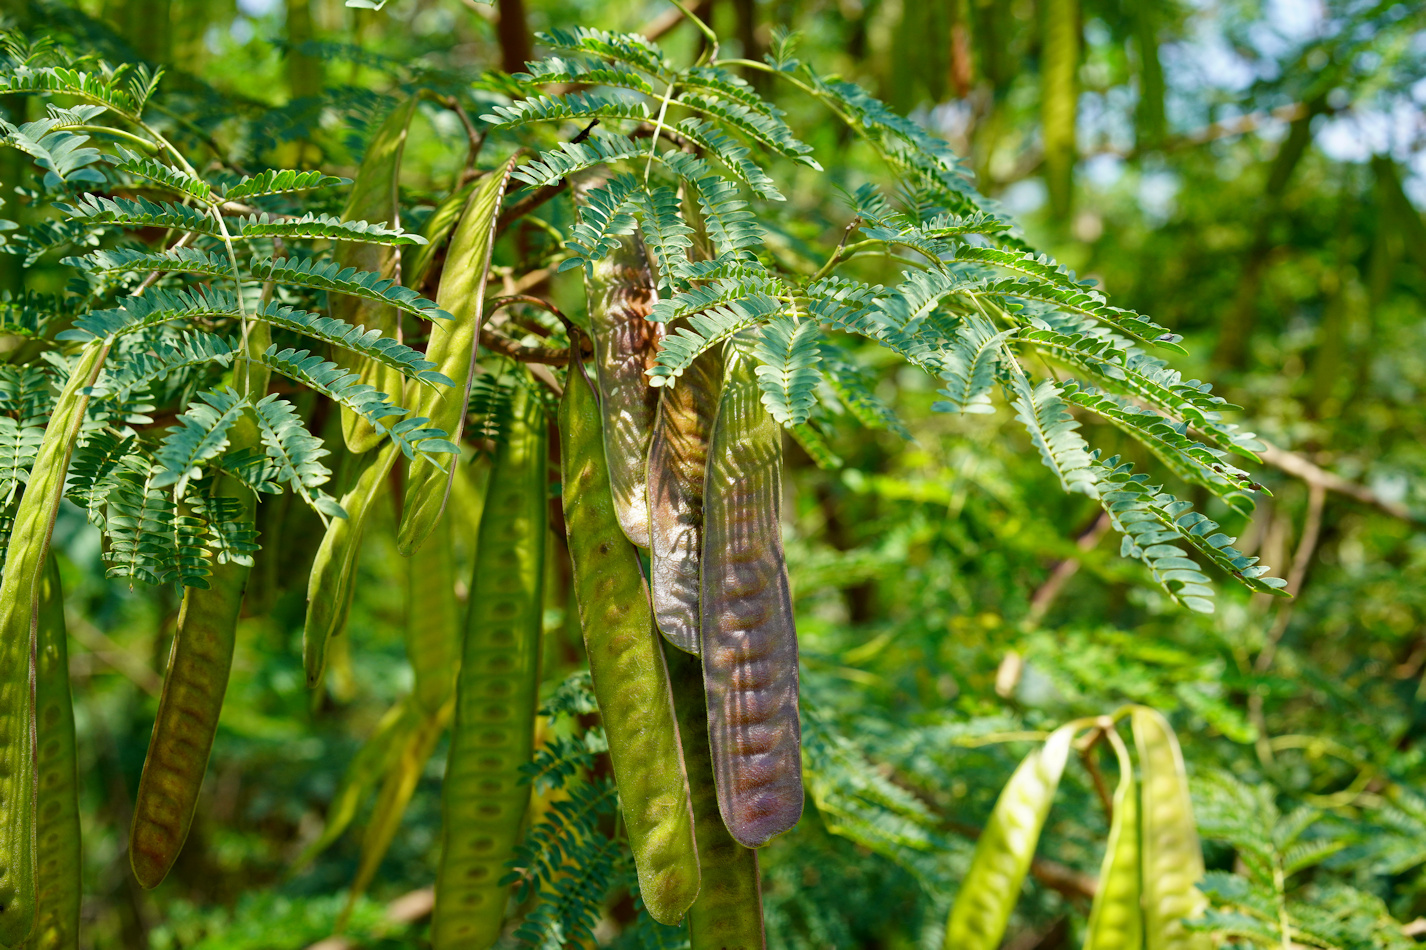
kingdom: Plantae
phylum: Tracheophyta
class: Magnoliopsida
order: Fabales
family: Fabaceae
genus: Leucaena
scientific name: Leucaena leucocephala
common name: White leadtree
